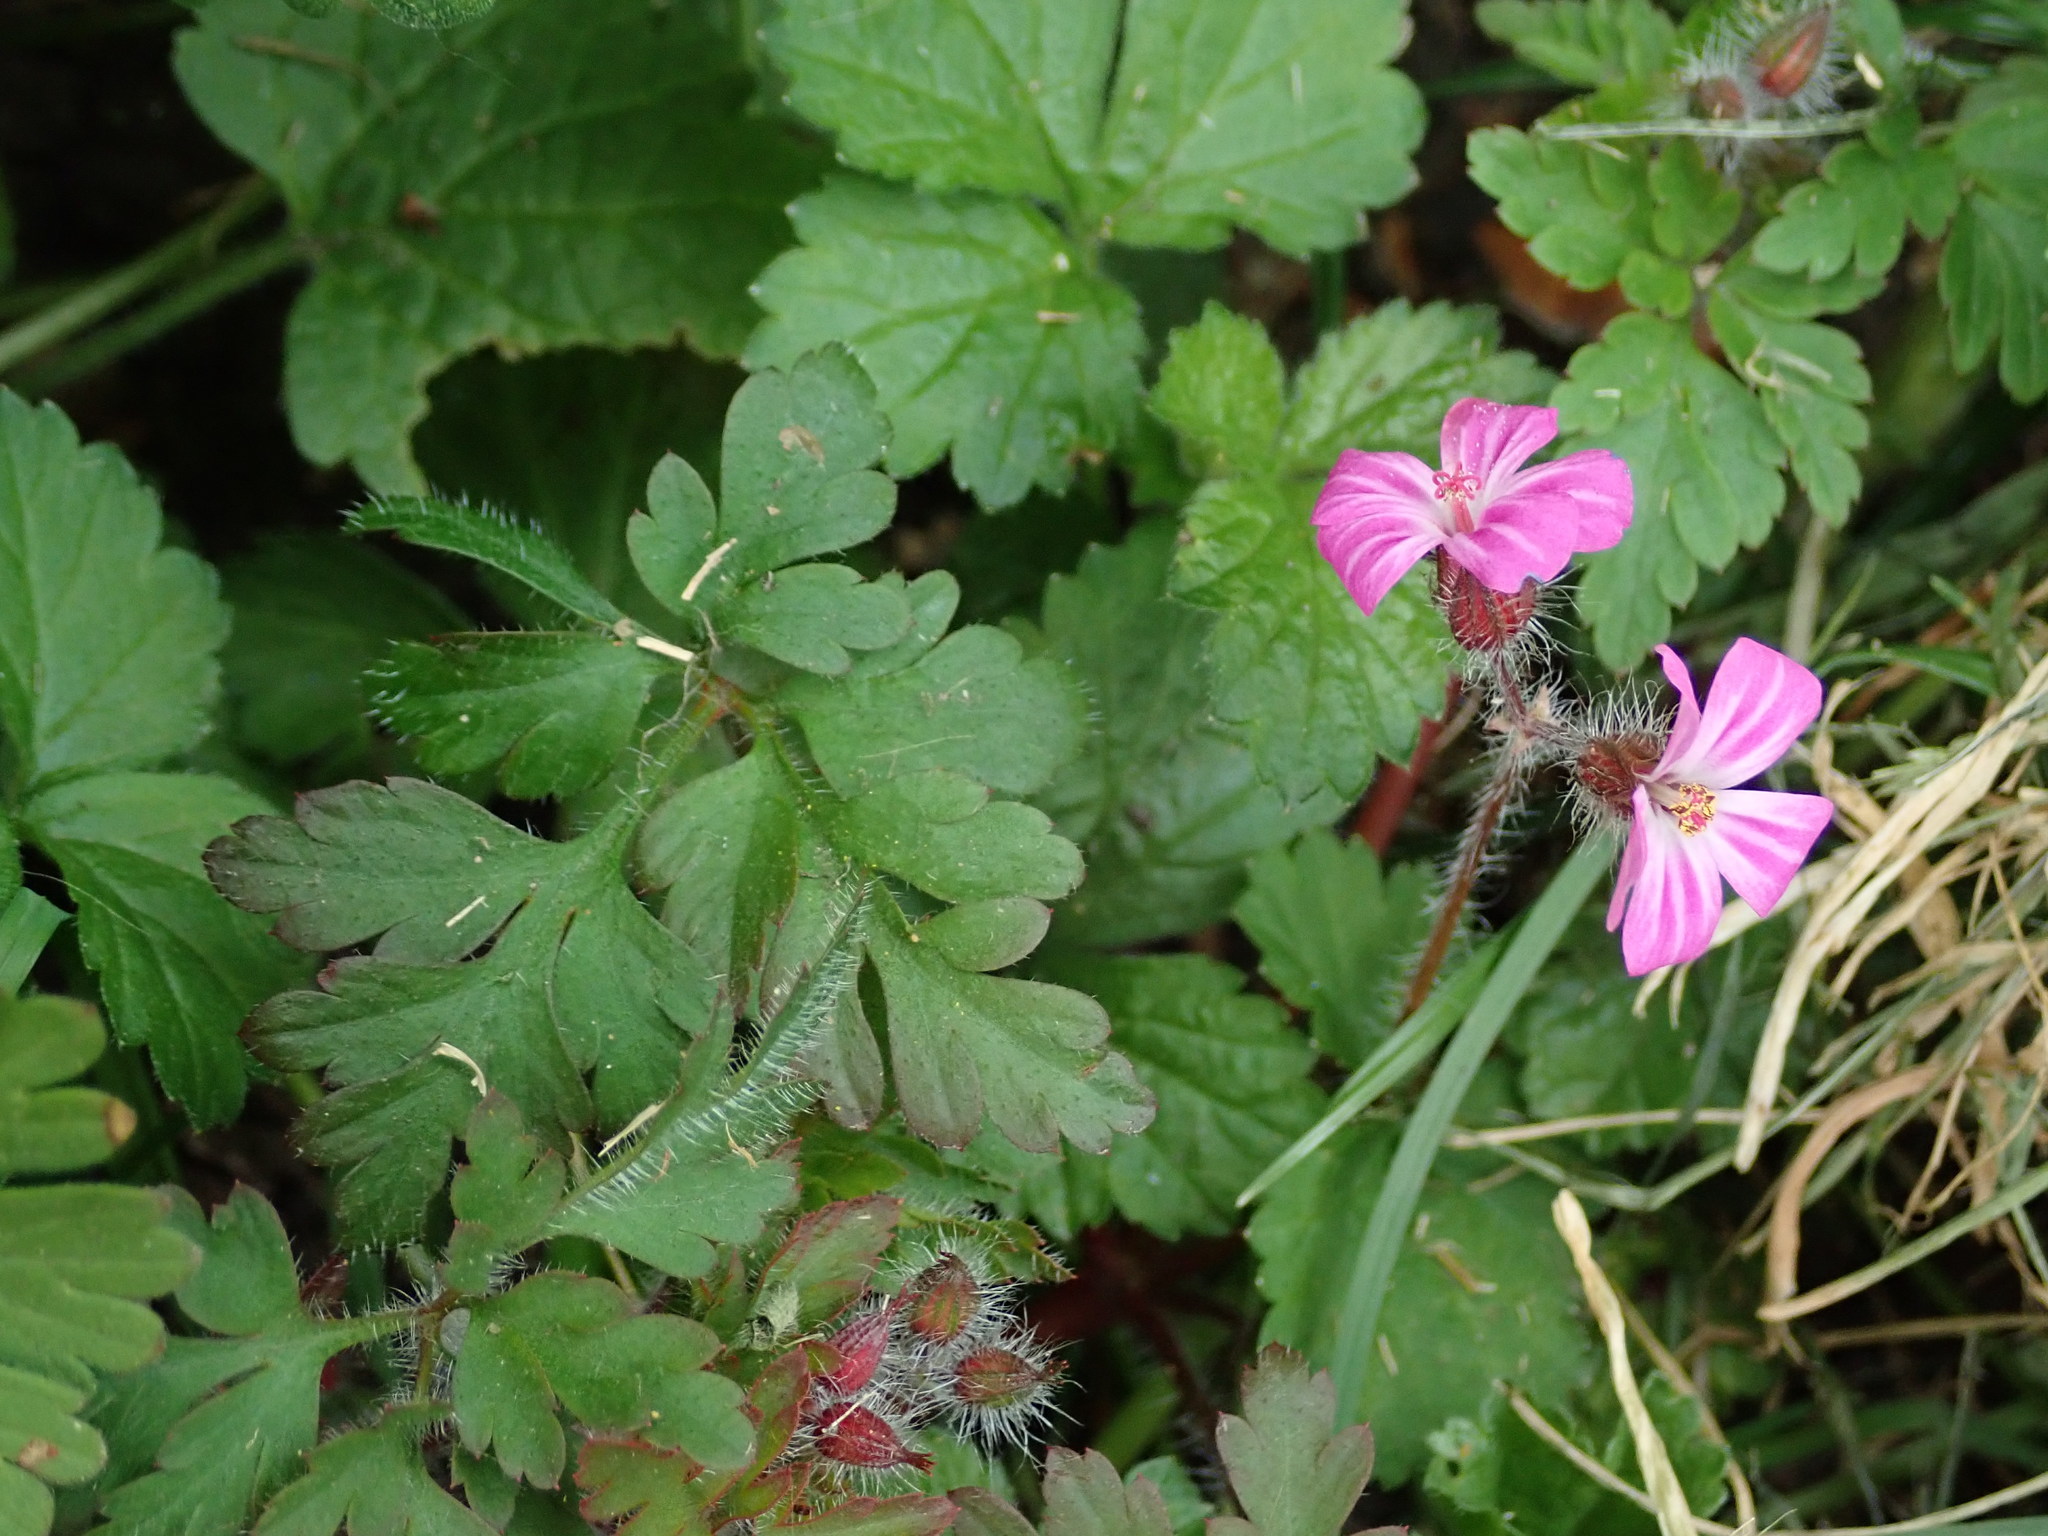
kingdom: Plantae
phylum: Tracheophyta
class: Magnoliopsida
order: Geraniales
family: Geraniaceae
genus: Geranium
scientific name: Geranium robertianum
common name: Herb-robert
